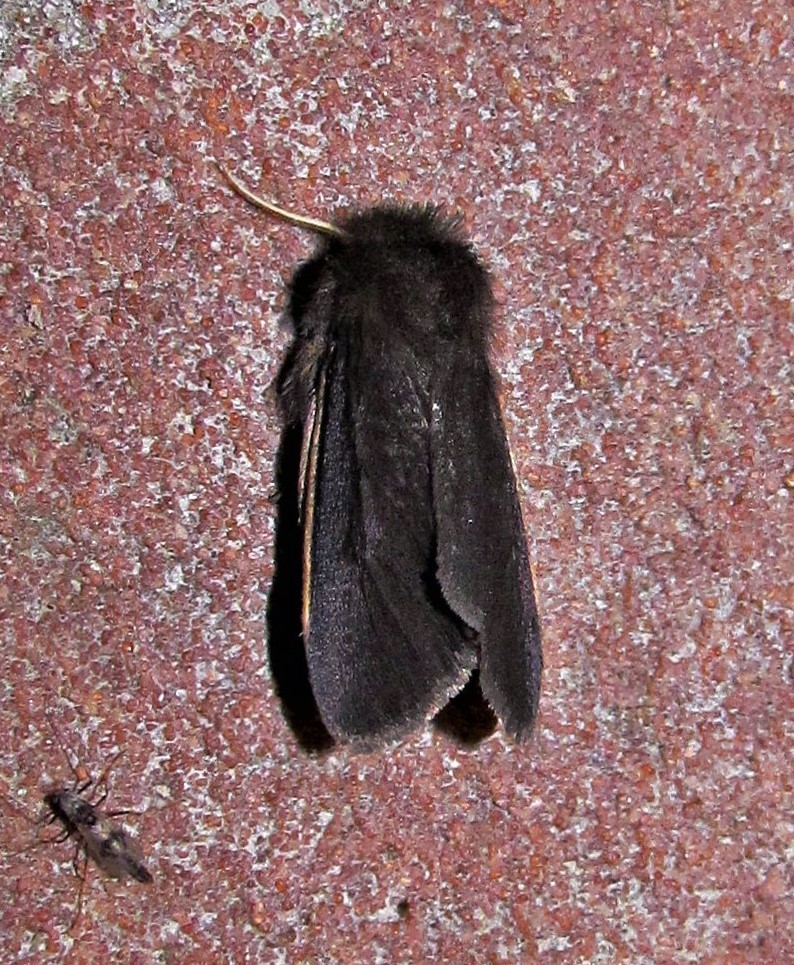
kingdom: Animalia
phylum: Arthropoda
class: Insecta
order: Lepidoptera
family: Erebidae
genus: Paracles
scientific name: Paracles contraria
